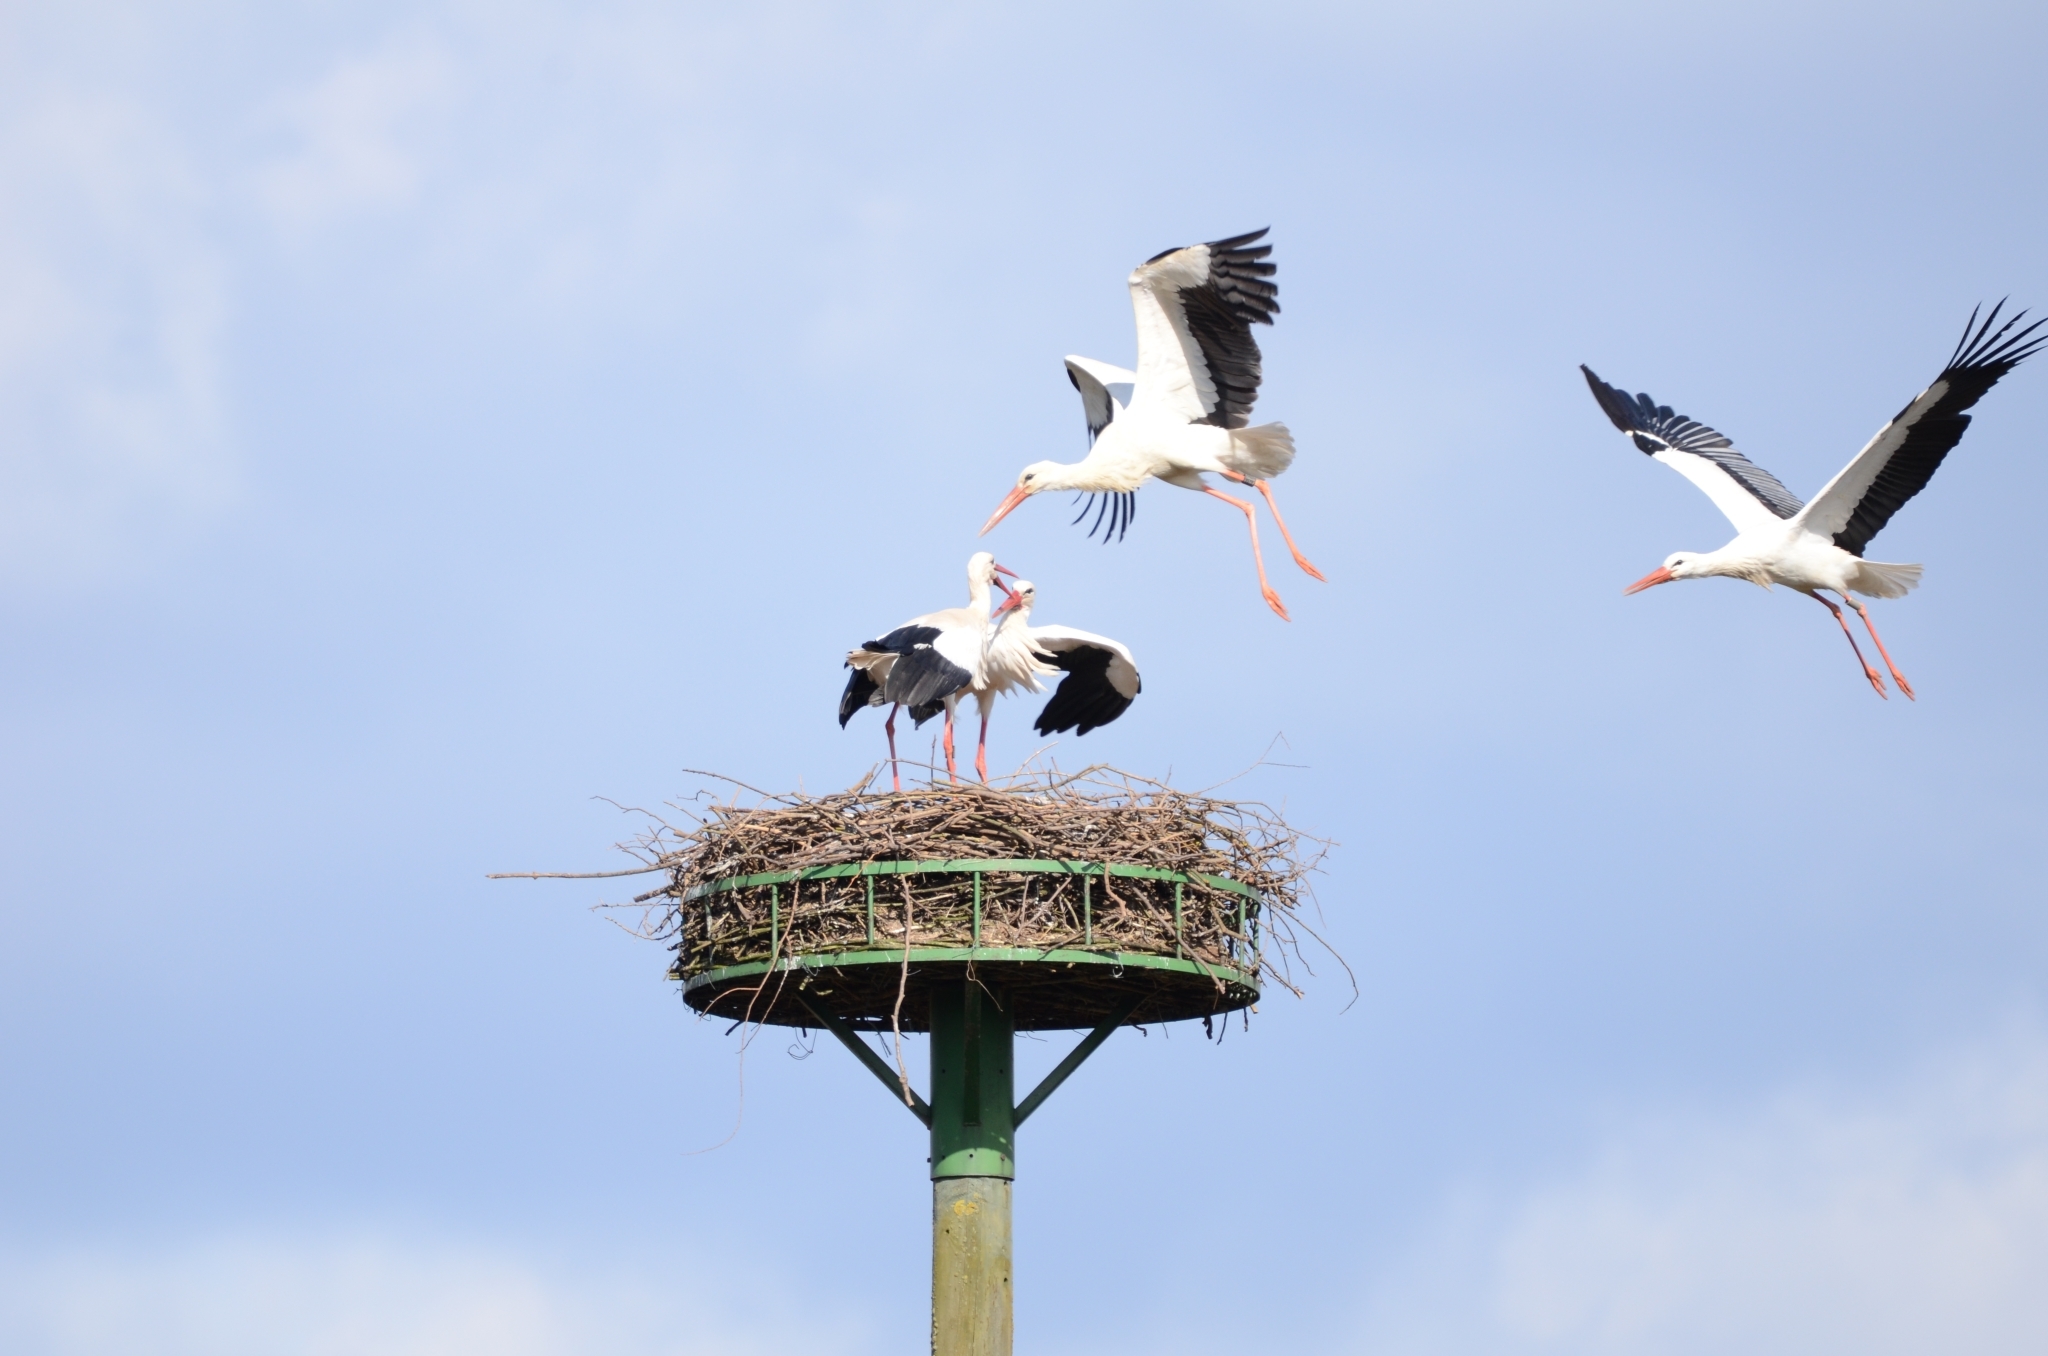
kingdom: Animalia
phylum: Chordata
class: Aves
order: Ciconiiformes
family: Ciconiidae
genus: Ciconia
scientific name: Ciconia ciconia
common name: White stork
